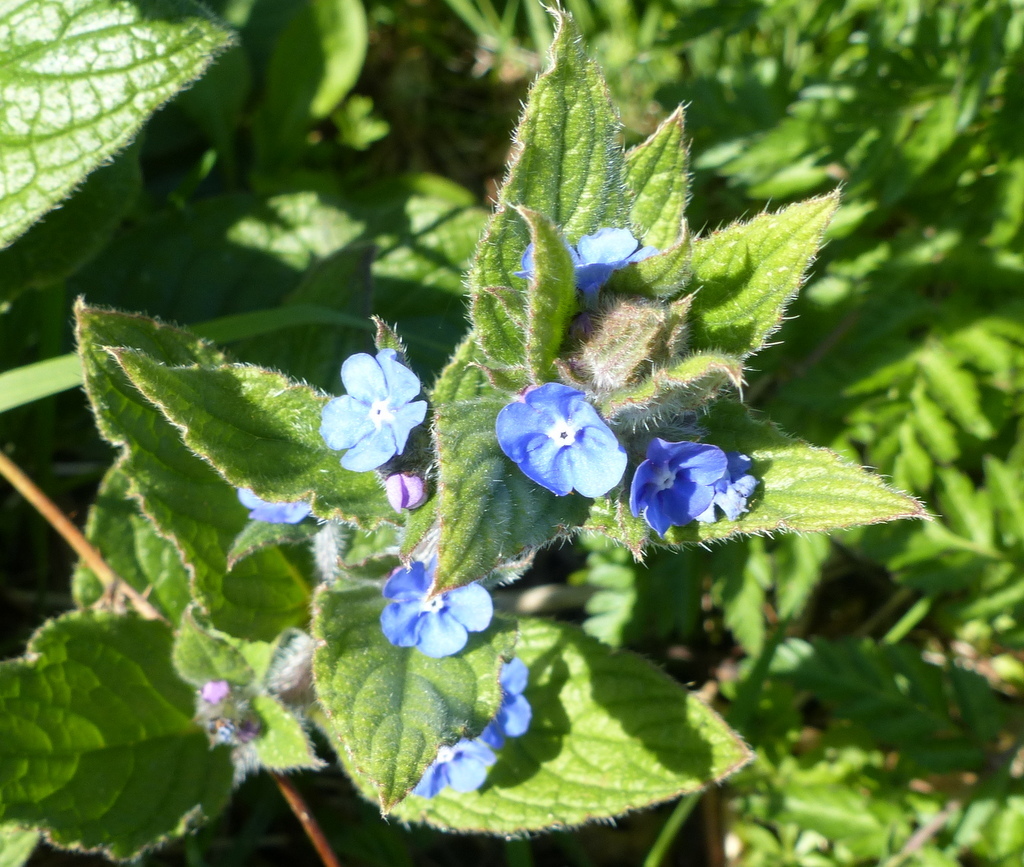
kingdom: Plantae
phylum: Tracheophyta
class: Magnoliopsida
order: Boraginales
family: Boraginaceae
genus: Pentaglottis
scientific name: Pentaglottis sempervirens
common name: Green alkanet
